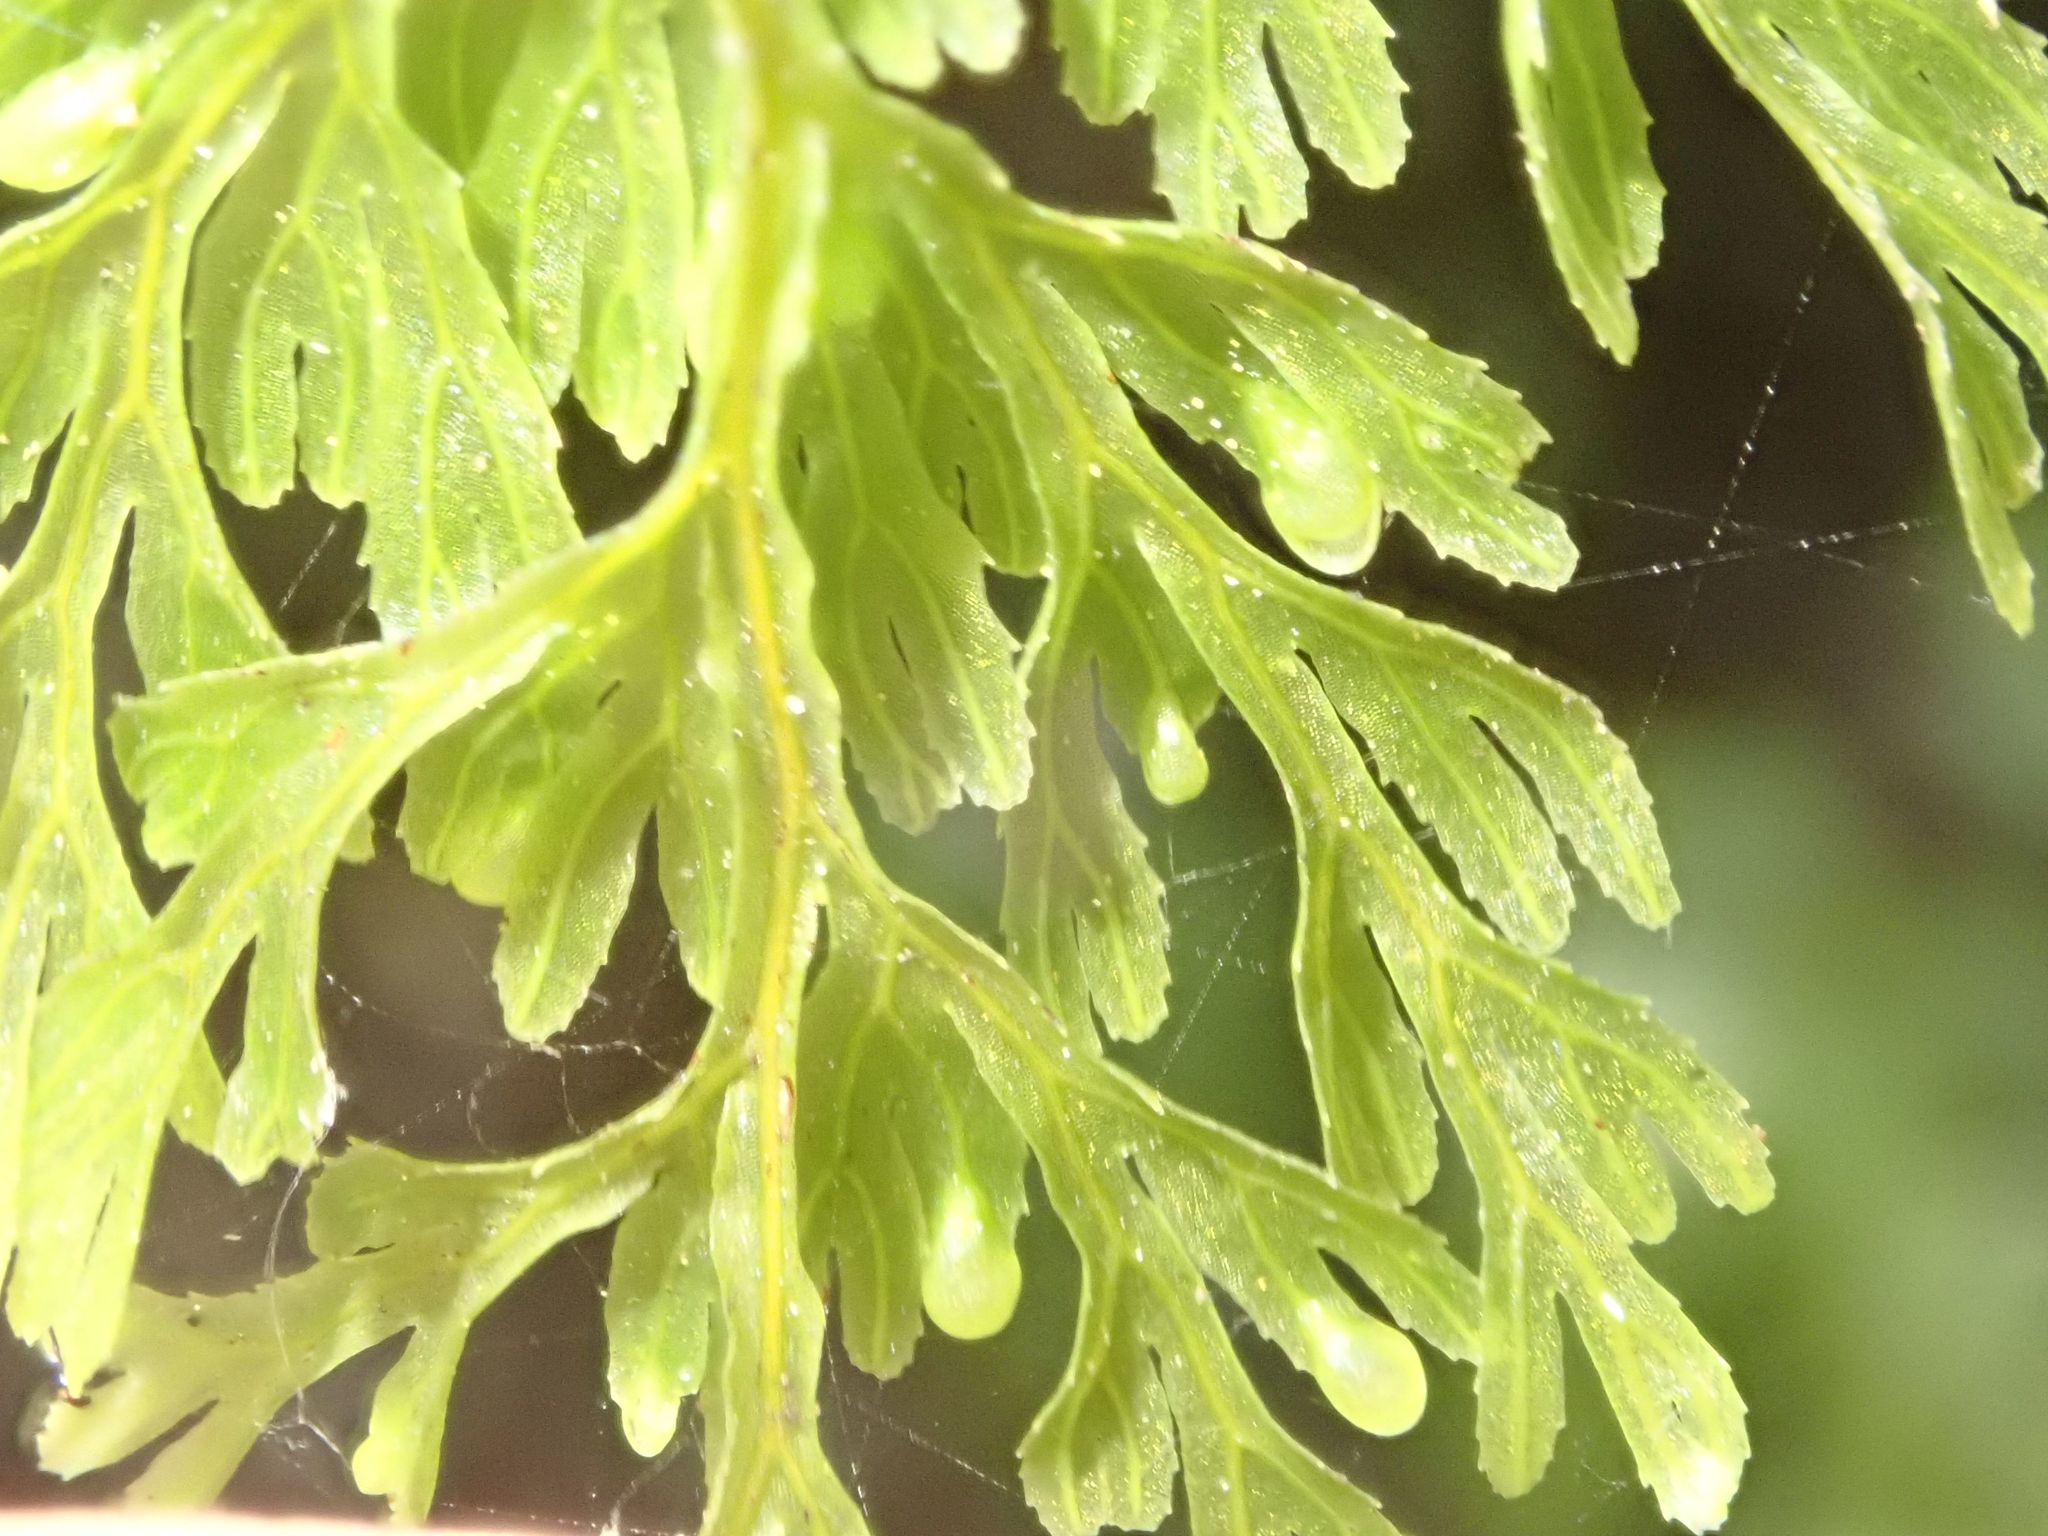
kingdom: Plantae
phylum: Tracheophyta
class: Polypodiopsida
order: Hymenophyllales
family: Hymenophyllaceae
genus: Hymenophyllum
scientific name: Hymenophyllum bivalve
